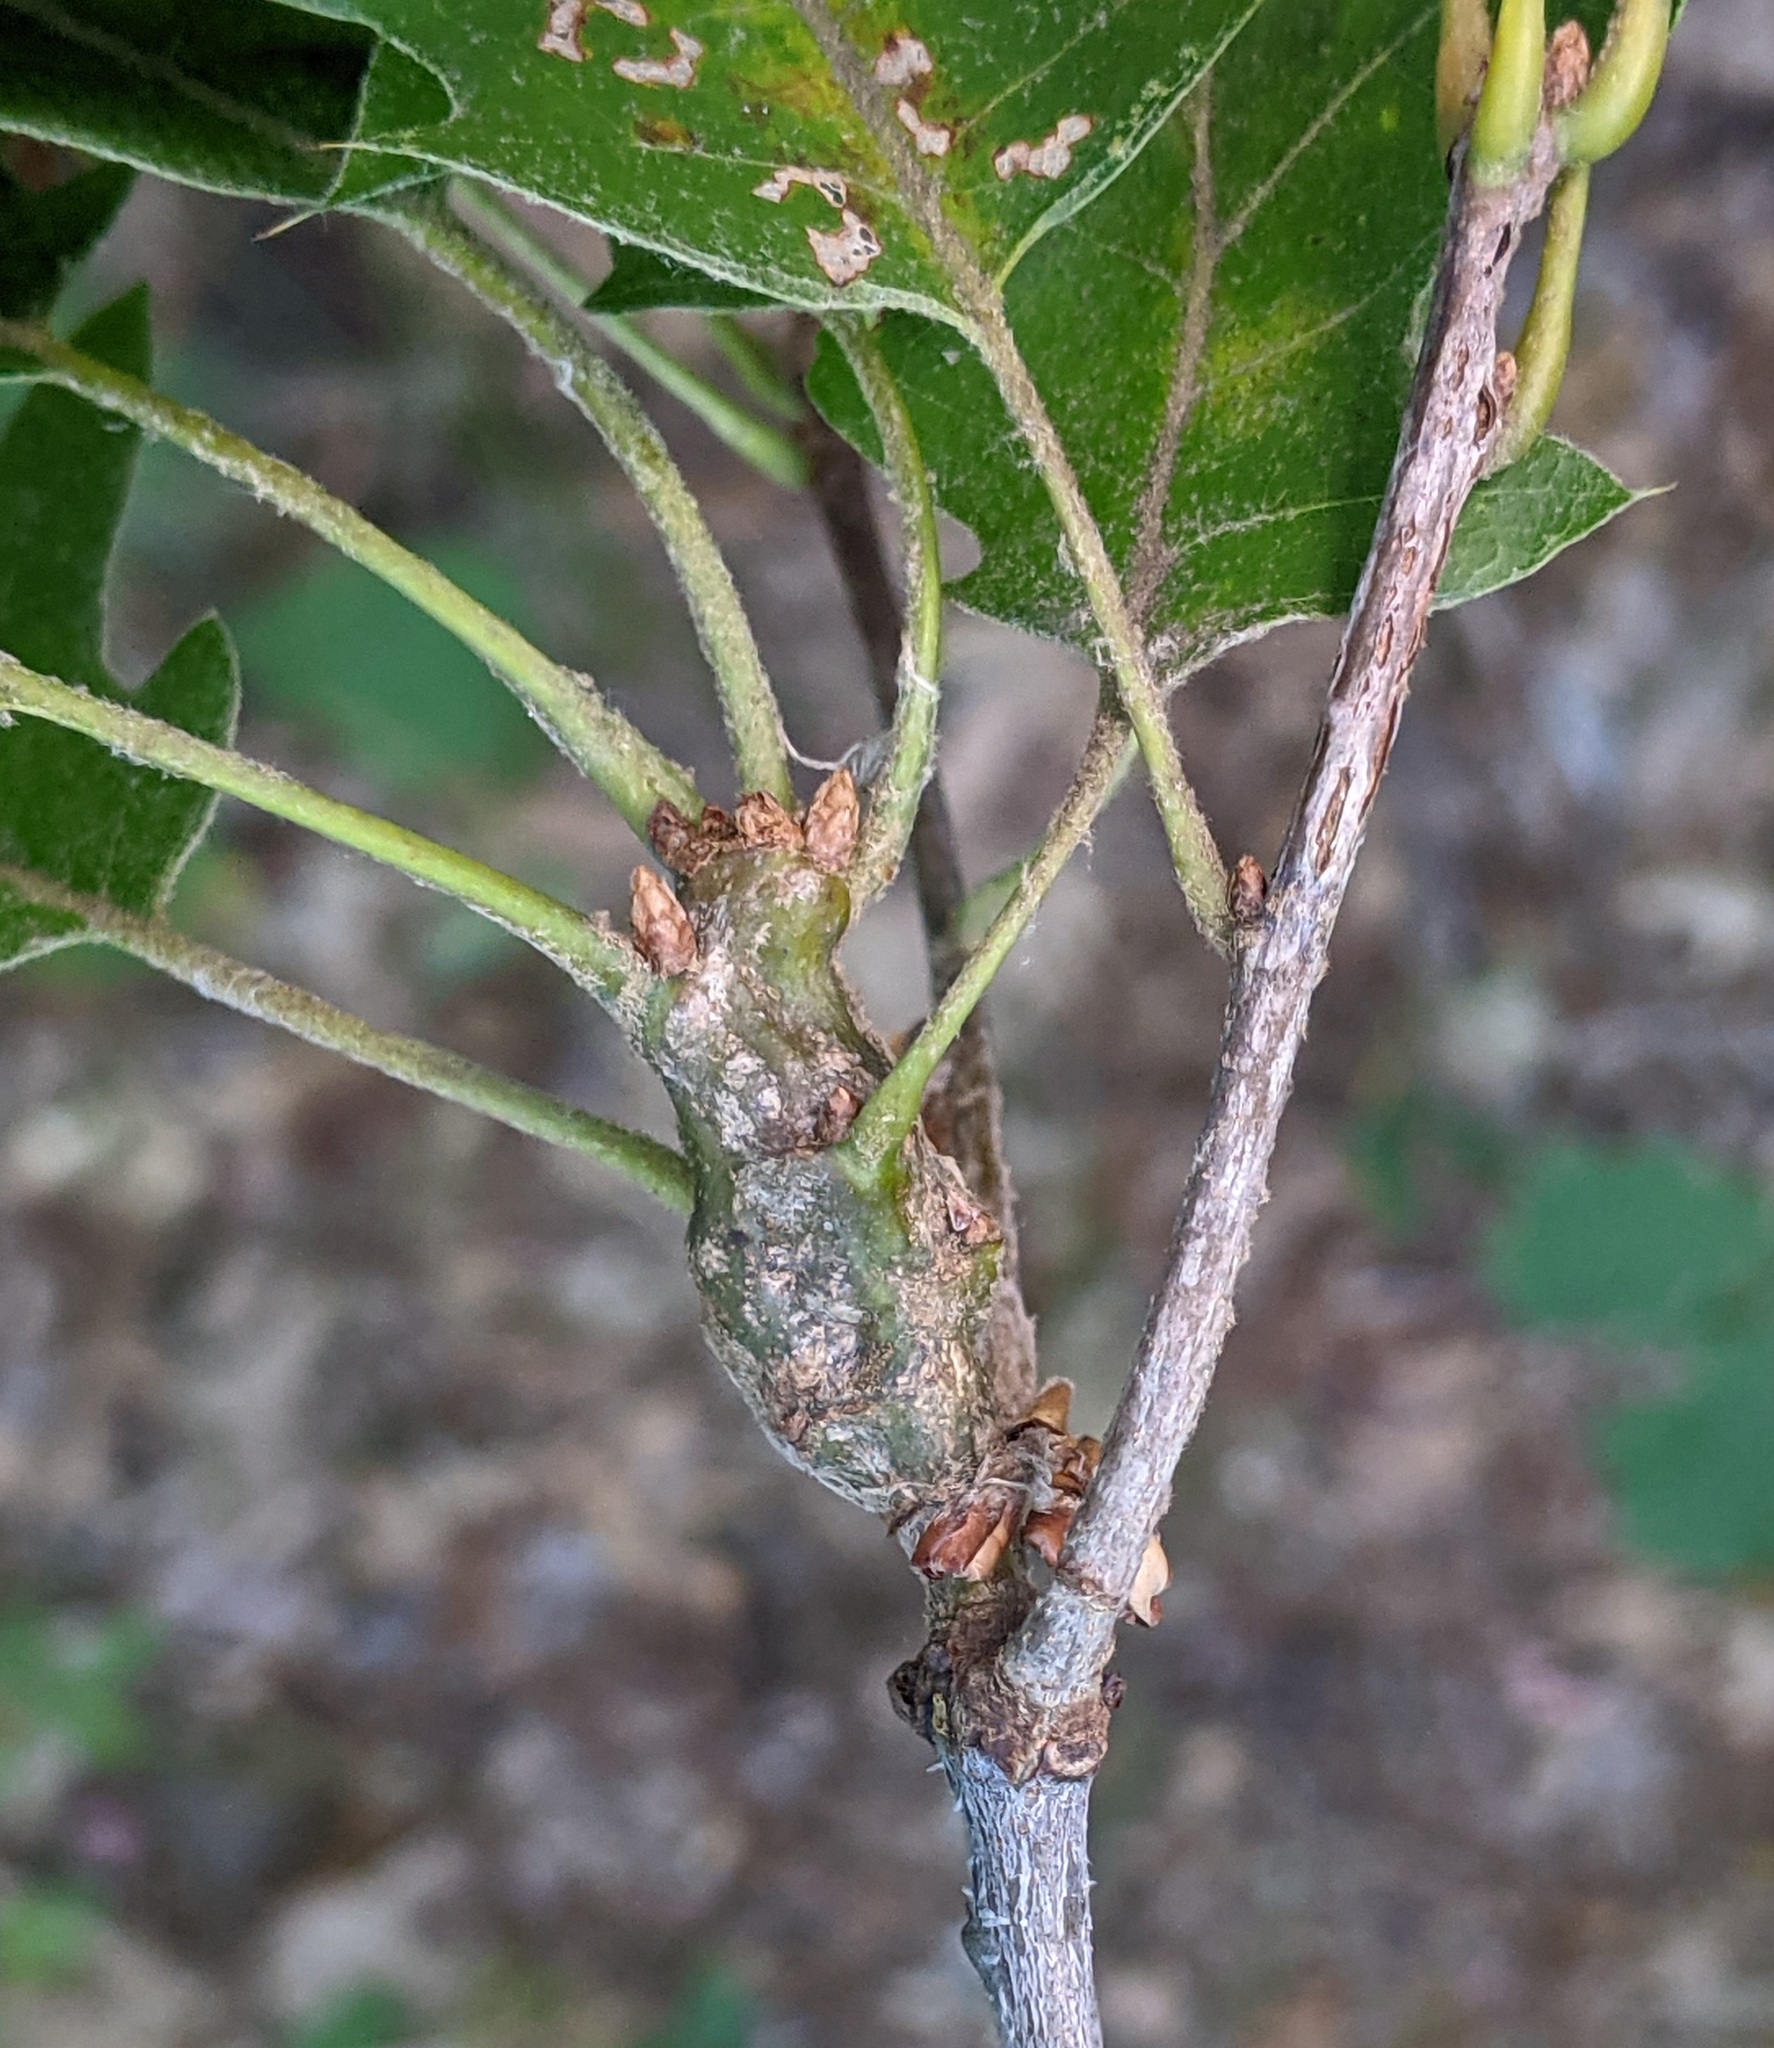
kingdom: Animalia
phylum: Arthropoda
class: Insecta
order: Hymenoptera
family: Cynipidae
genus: Callirhytis
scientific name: Callirhytis
